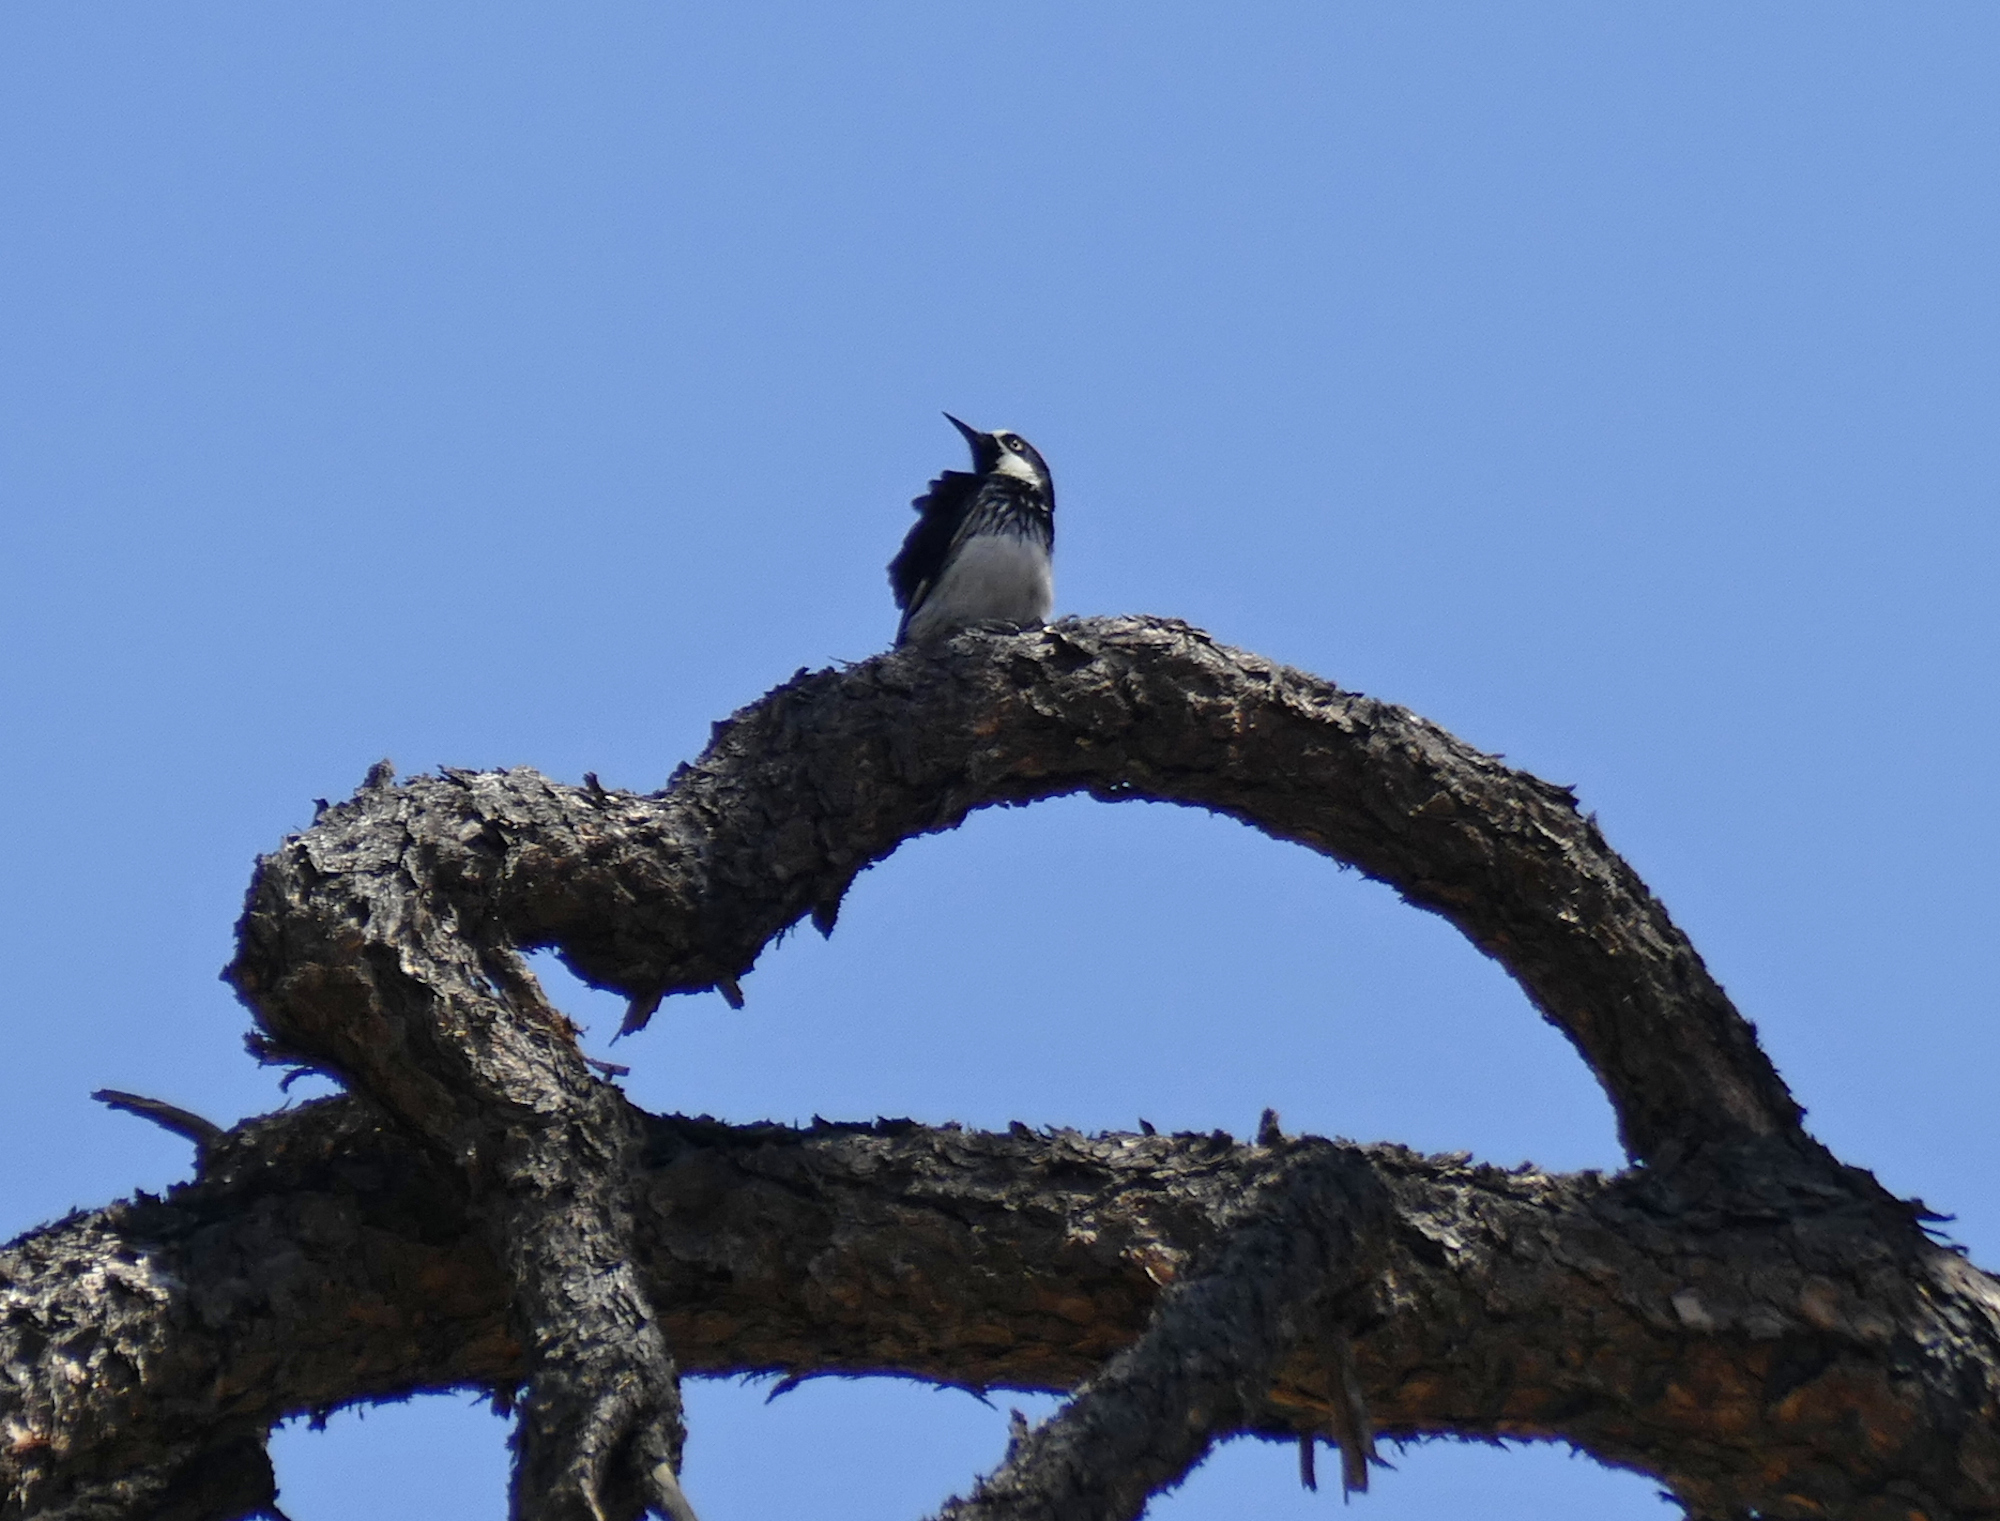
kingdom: Animalia
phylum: Chordata
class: Aves
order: Piciformes
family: Picidae
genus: Melanerpes
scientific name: Melanerpes formicivorus
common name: Acorn woodpecker
